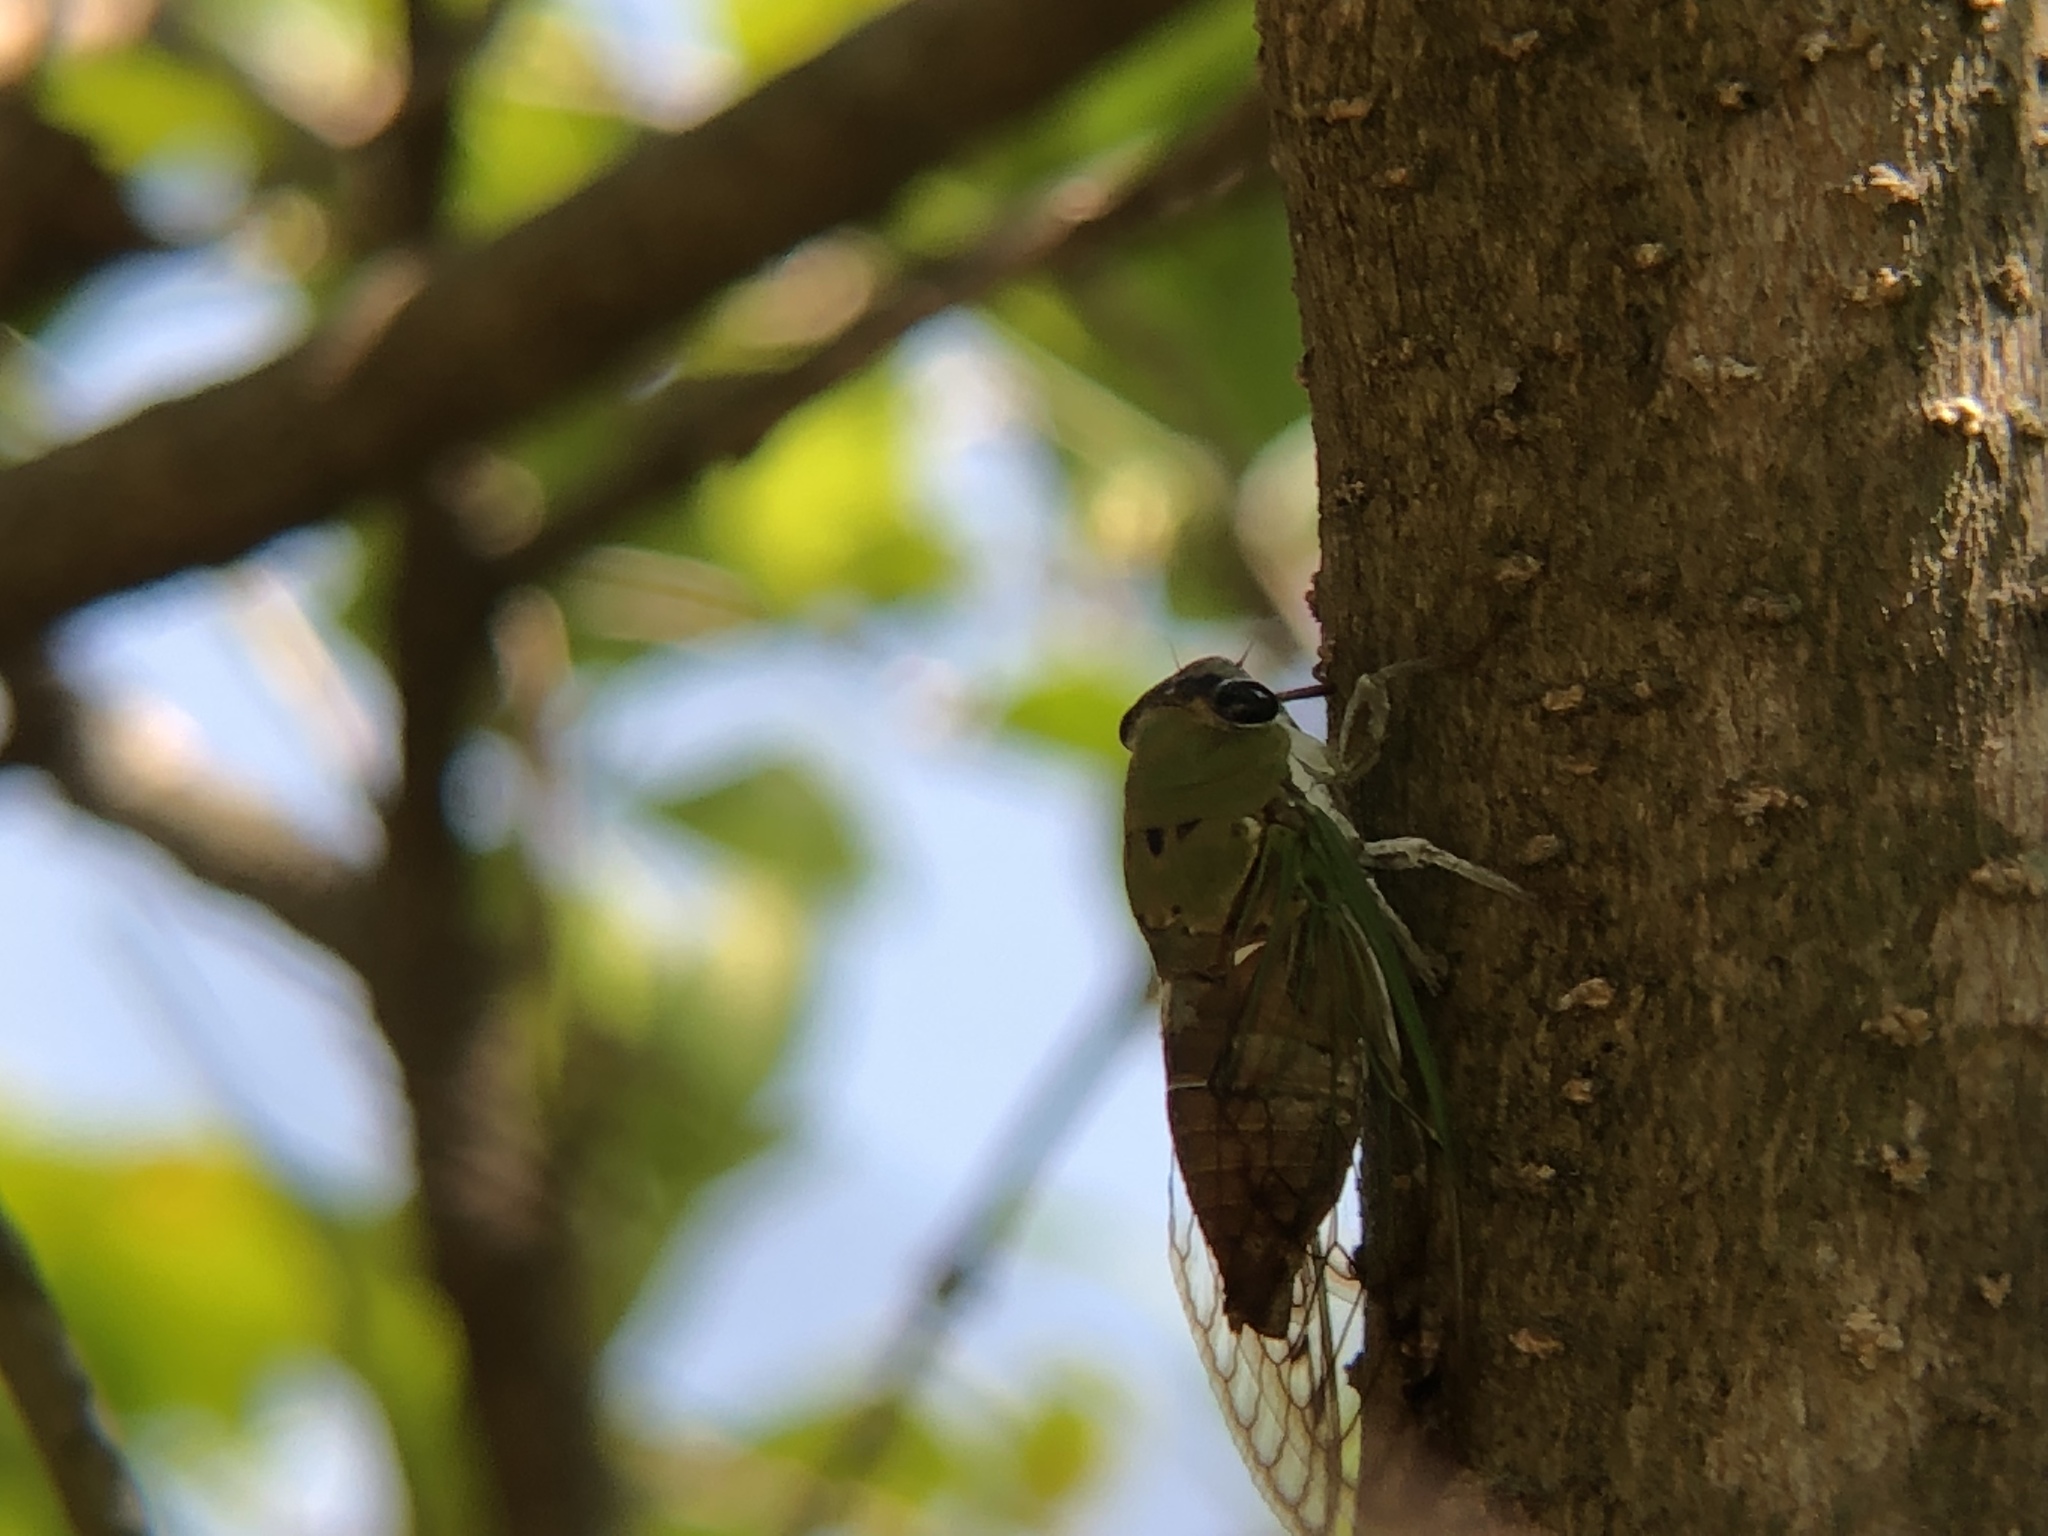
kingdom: Animalia
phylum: Arthropoda
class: Insecta
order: Hemiptera
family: Cicadidae
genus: Neotibicen
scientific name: Neotibicen superbus
